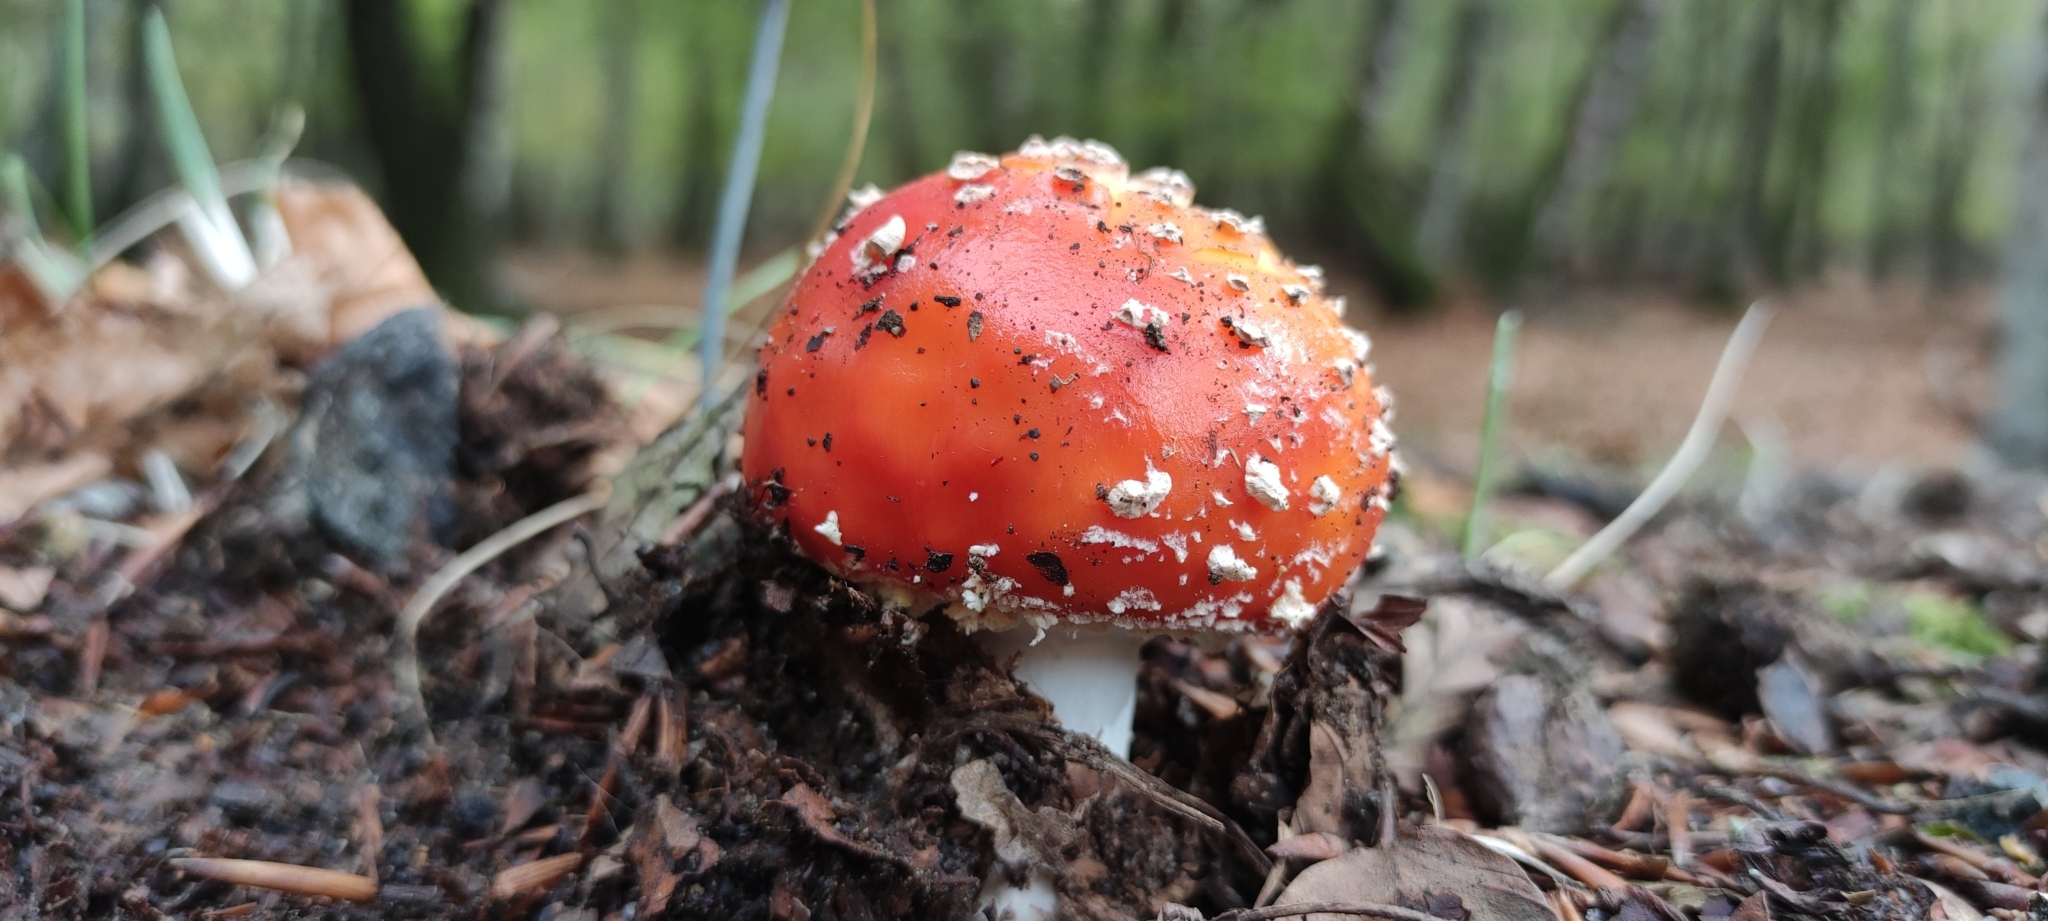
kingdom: Fungi
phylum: Basidiomycota
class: Agaricomycetes
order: Agaricales
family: Amanitaceae
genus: Amanita
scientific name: Amanita muscaria
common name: Fly agaric
